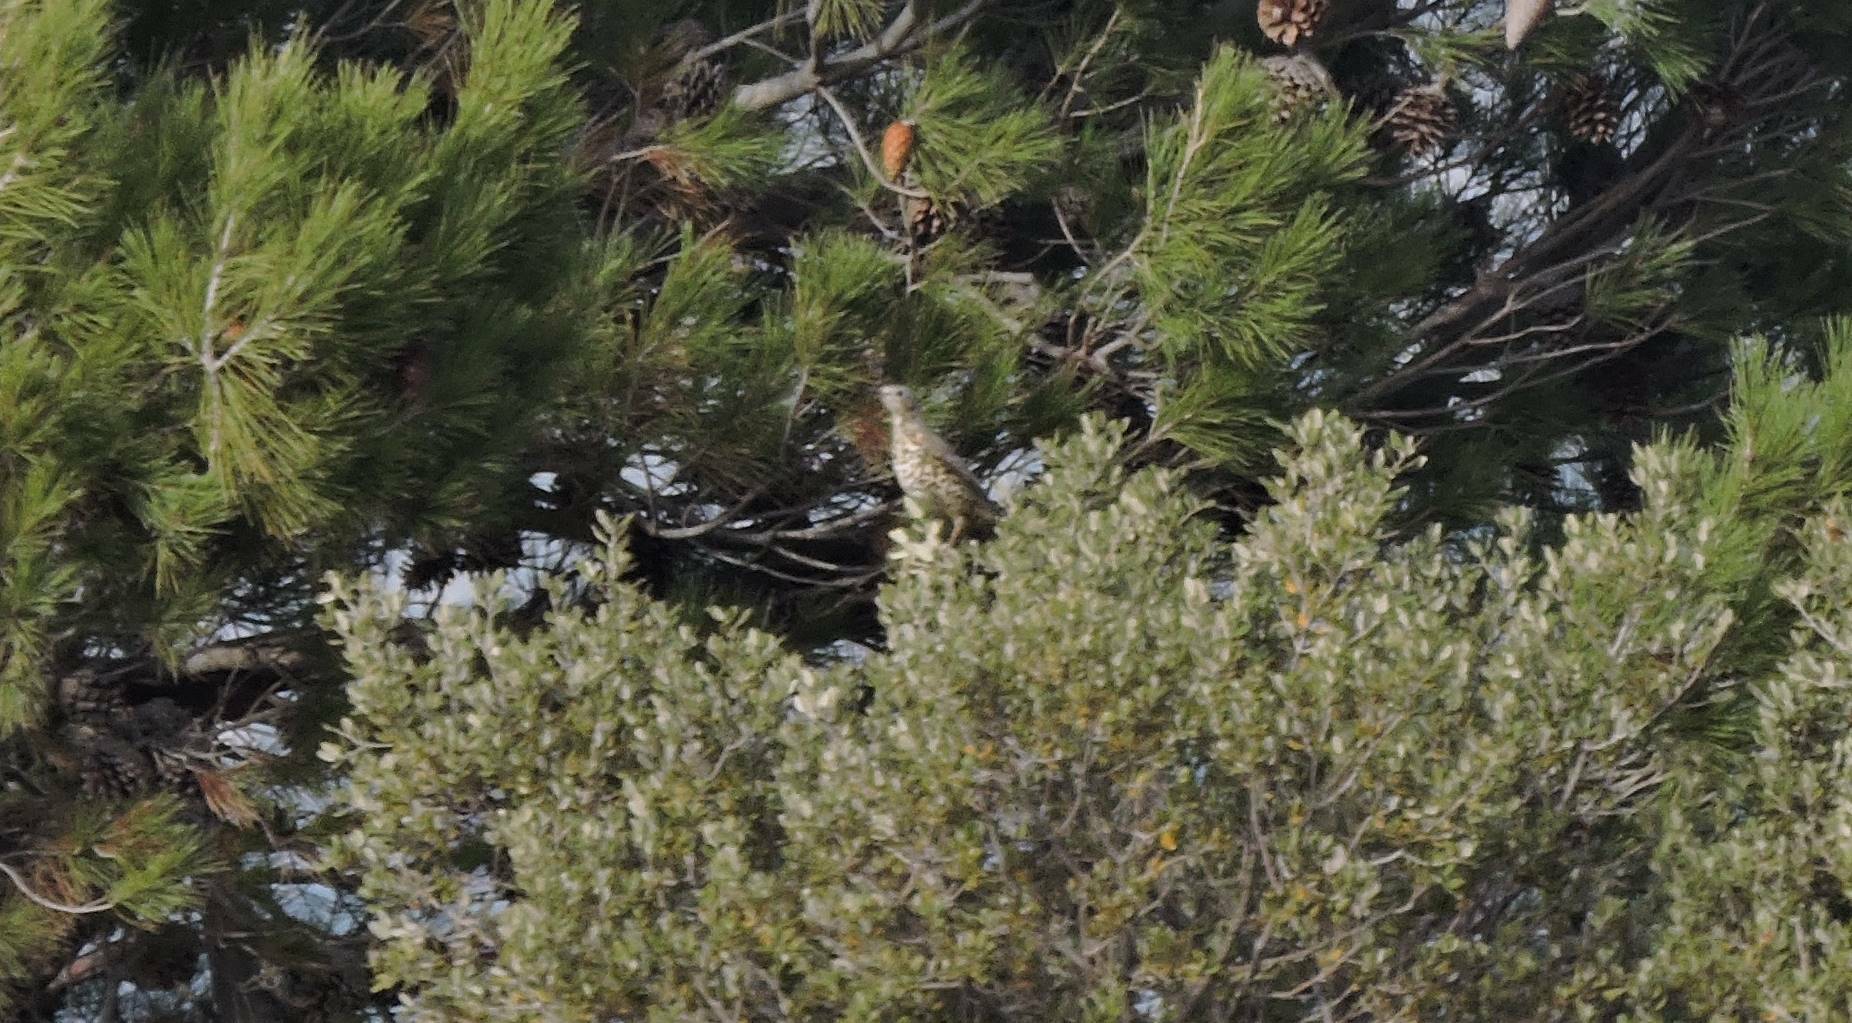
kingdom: Animalia
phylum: Chordata
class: Aves
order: Passeriformes
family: Turdidae
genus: Turdus
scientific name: Turdus viscivorus
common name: Mistle thrush
